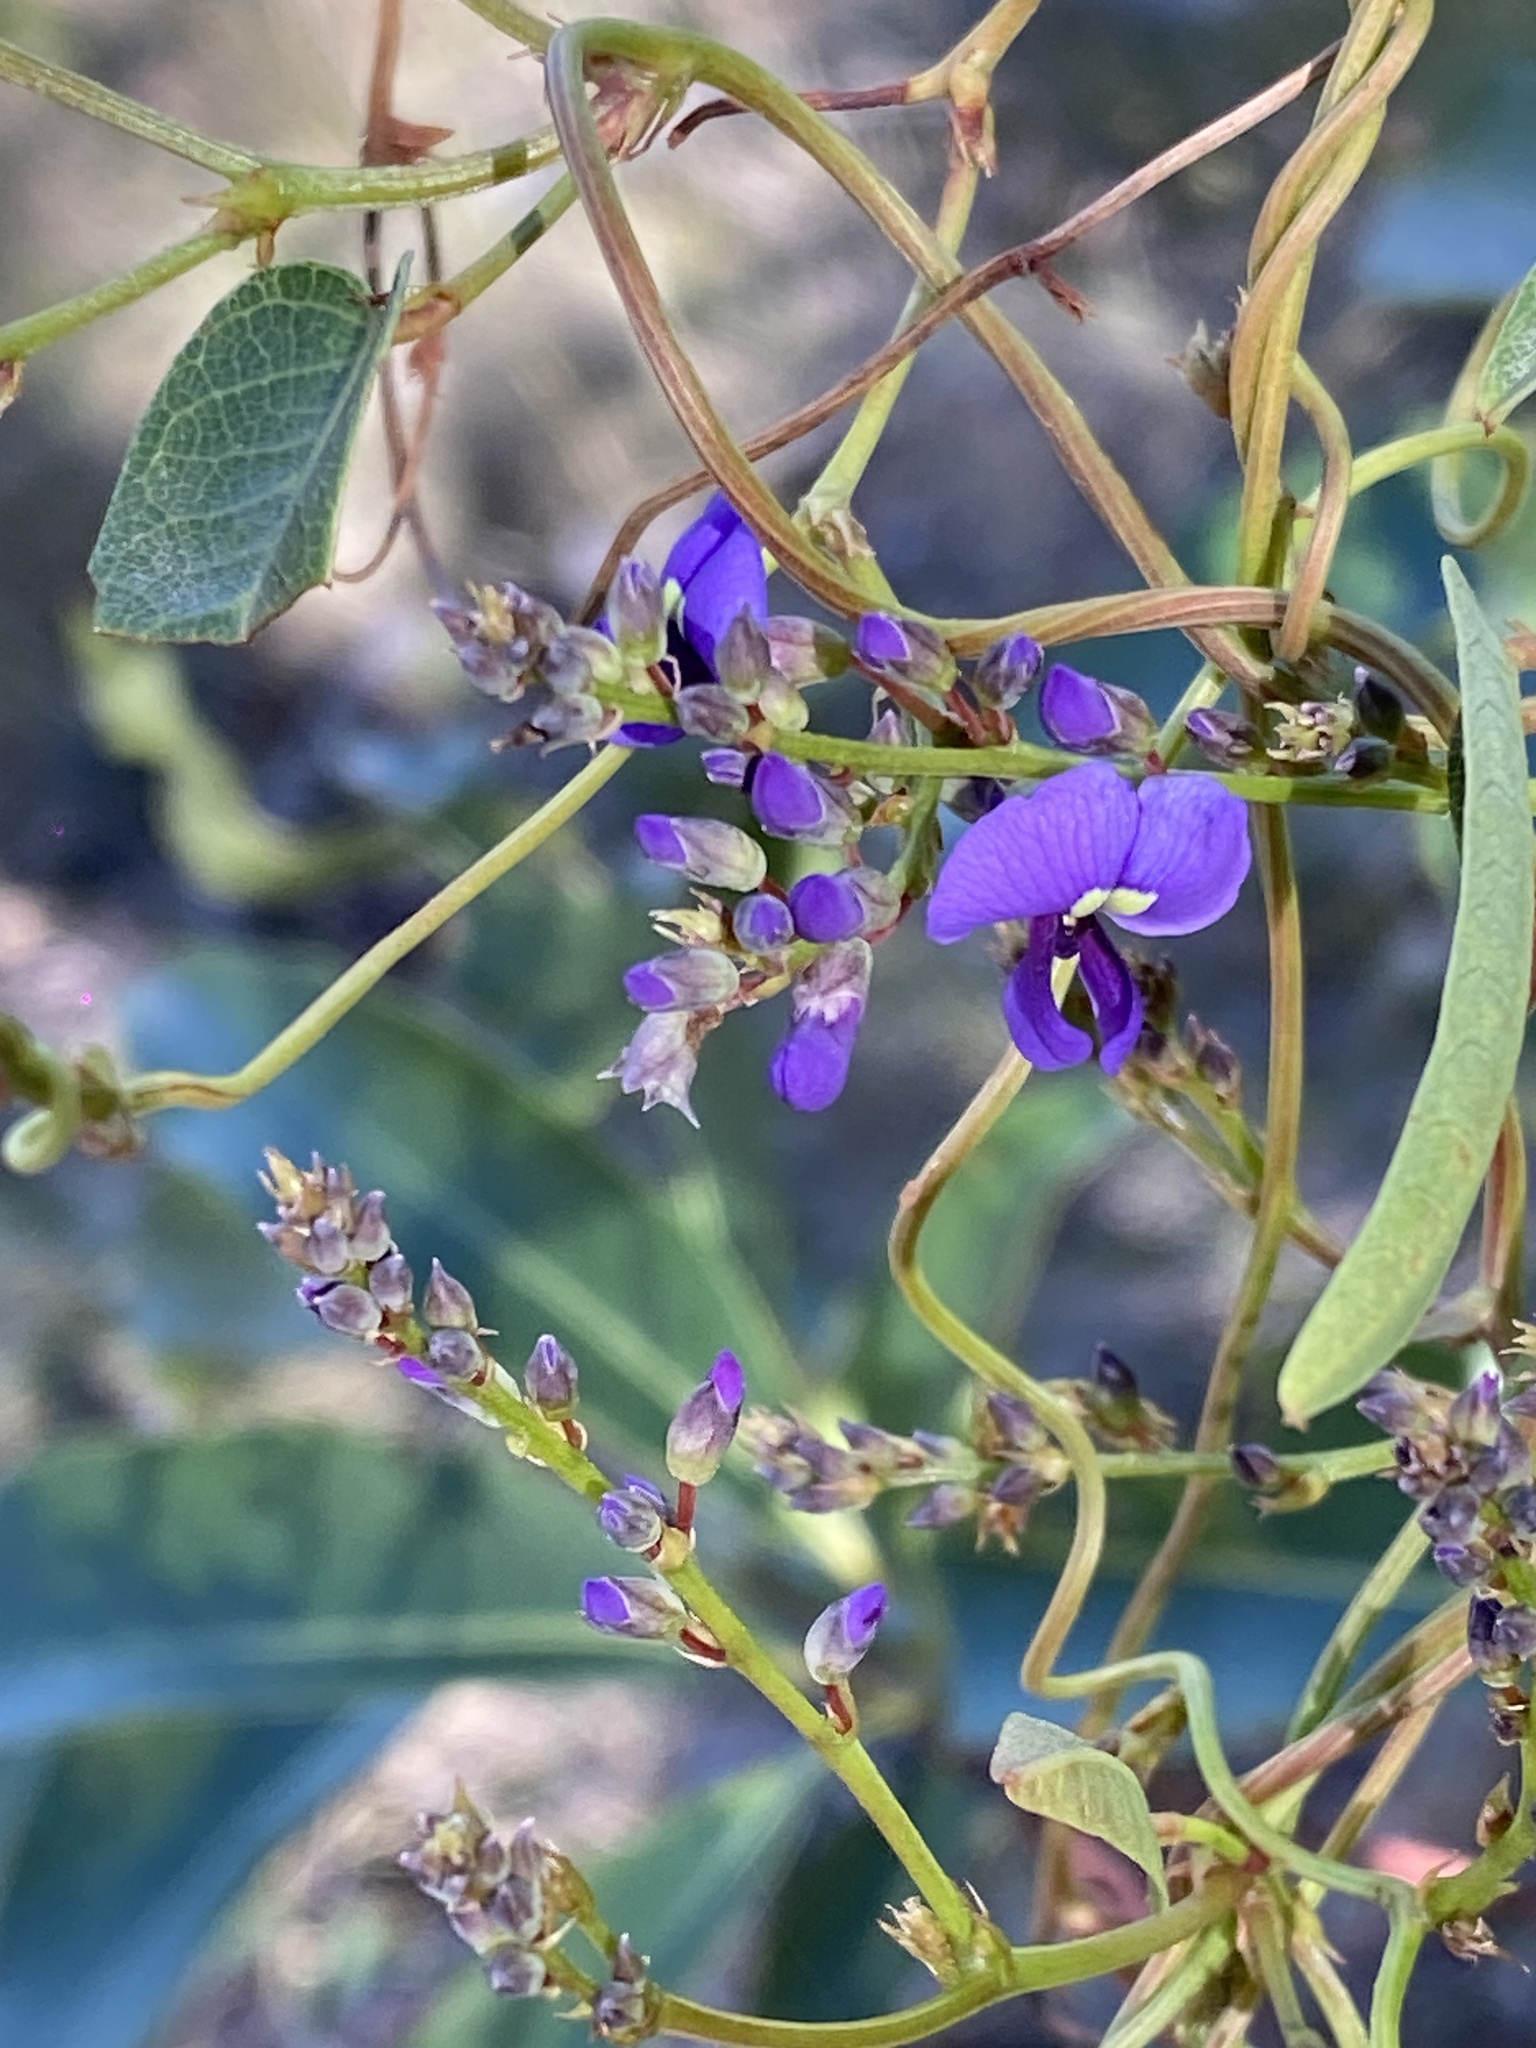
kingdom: Plantae
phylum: Tracheophyta
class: Magnoliopsida
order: Fabales
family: Fabaceae
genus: Hardenbergia
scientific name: Hardenbergia violacea
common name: Coral-pea
